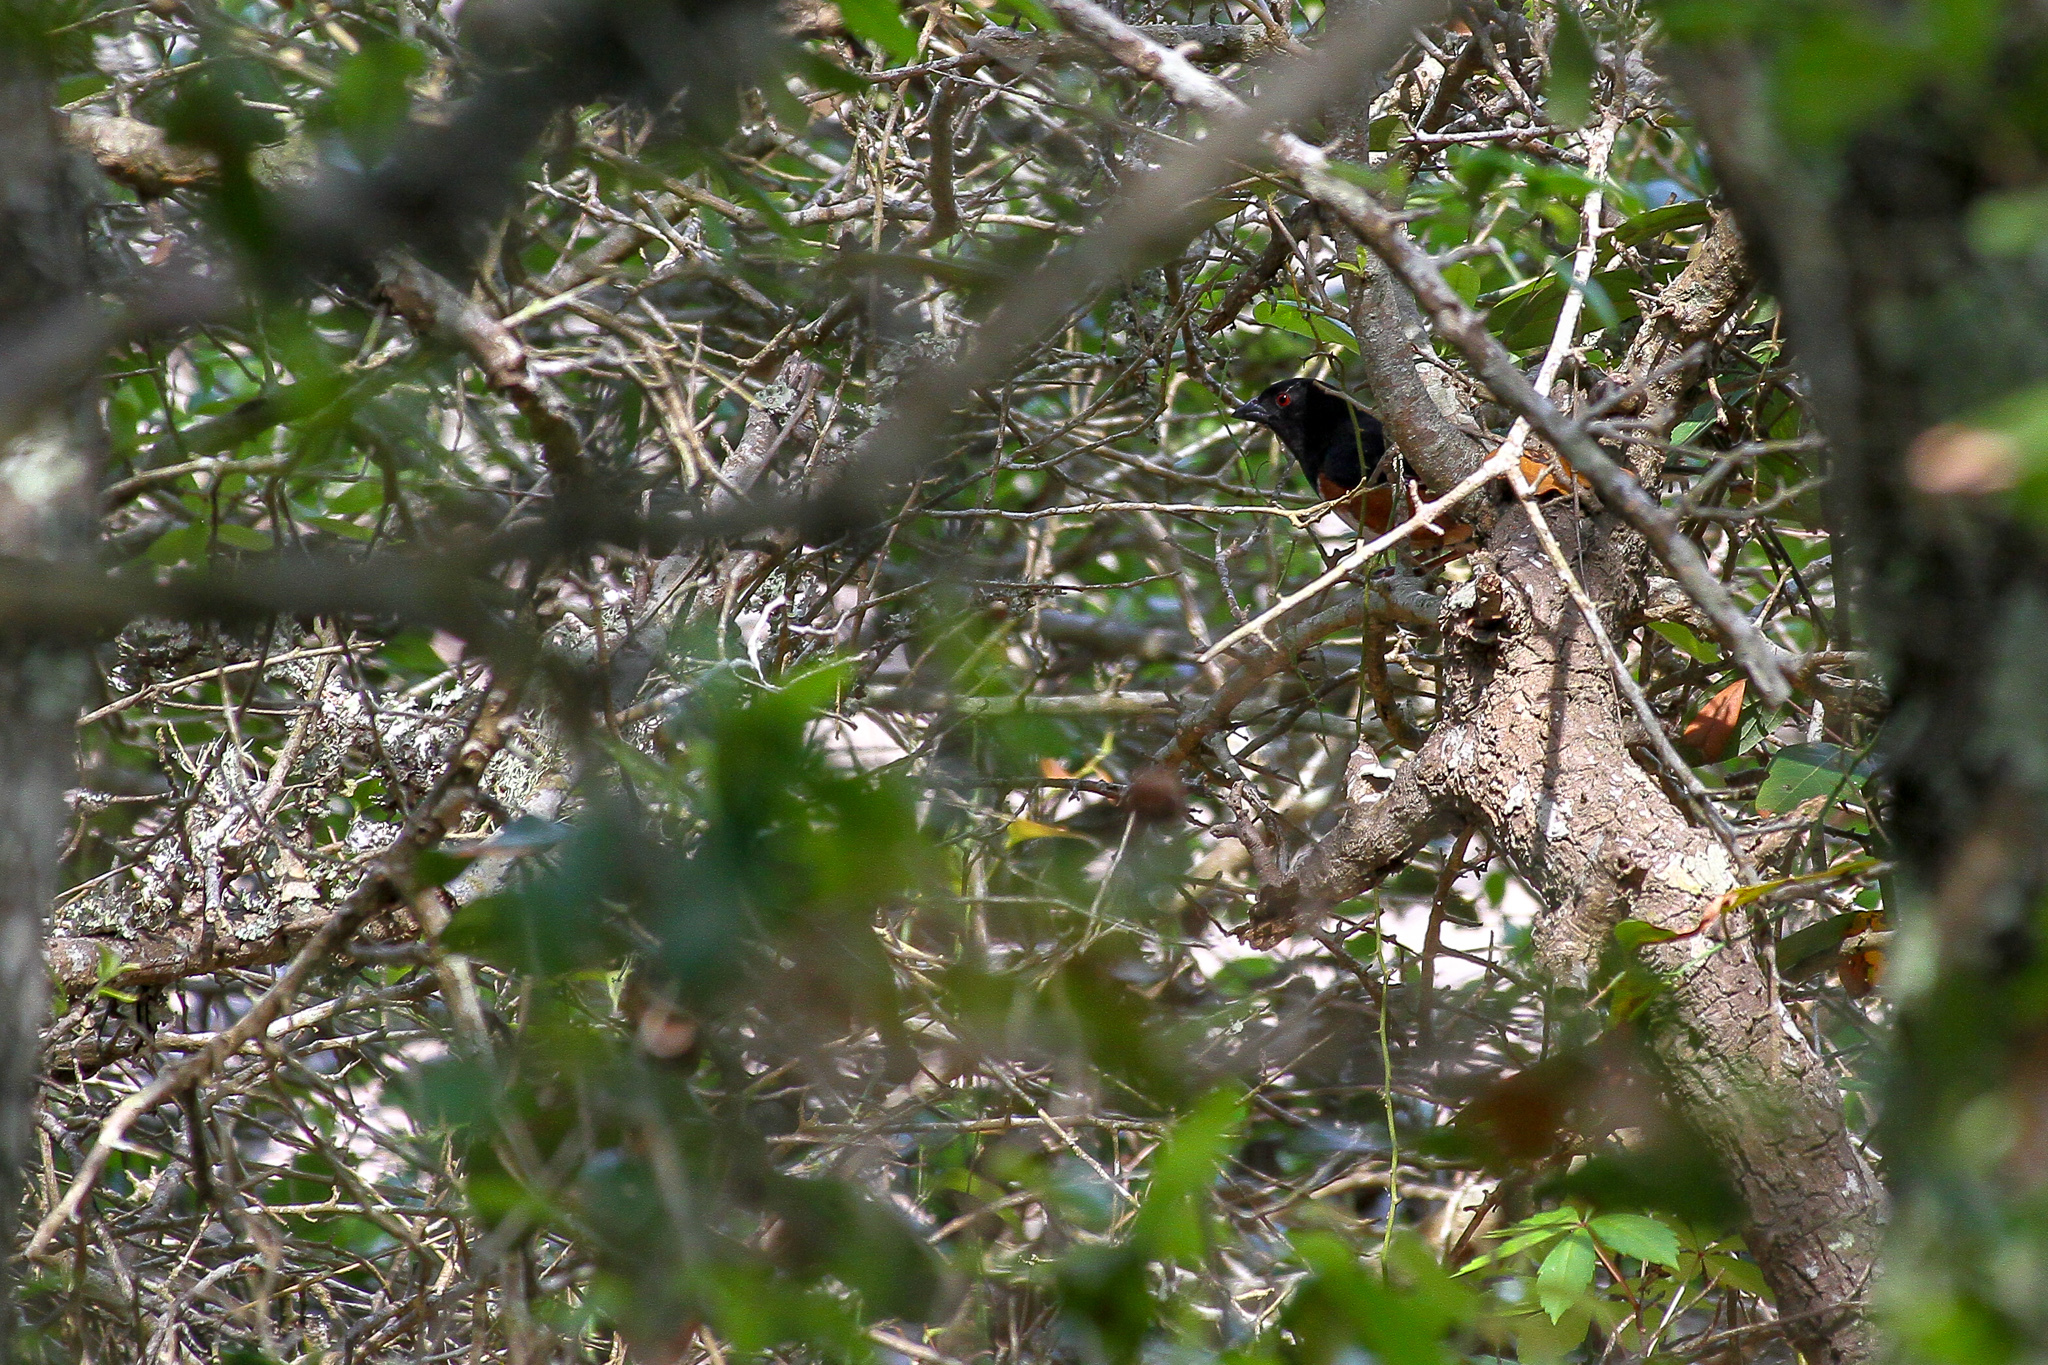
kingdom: Animalia
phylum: Chordata
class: Aves
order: Passeriformes
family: Passerellidae
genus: Pipilo
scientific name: Pipilo erythrophthalmus
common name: Eastern towhee
